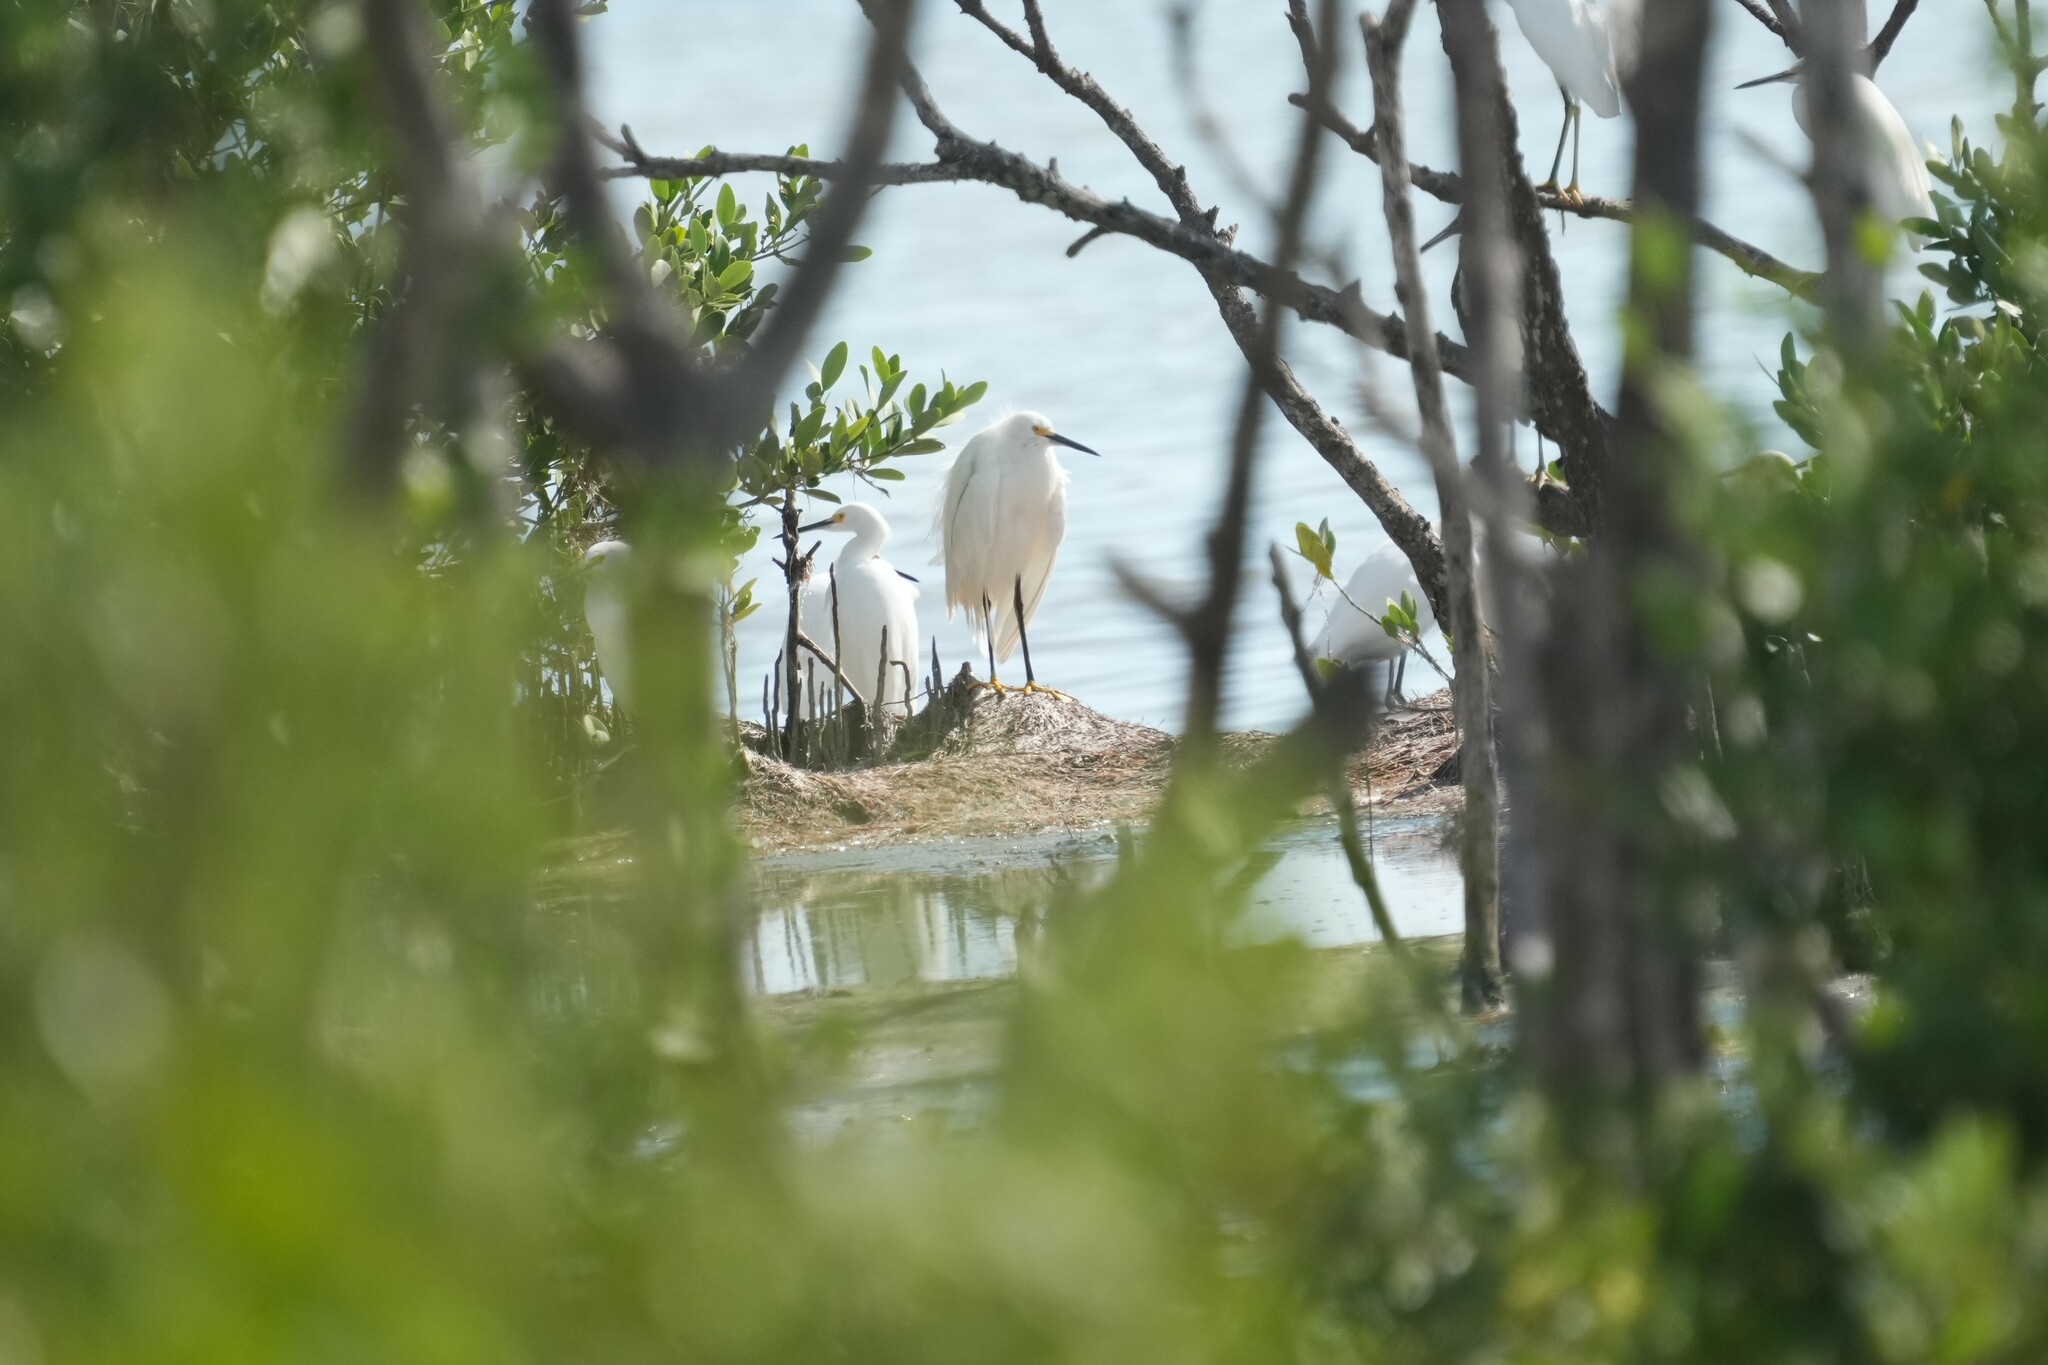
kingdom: Animalia
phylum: Chordata
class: Aves
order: Pelecaniformes
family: Ardeidae
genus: Egretta
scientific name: Egretta thula
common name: Snowy egret
